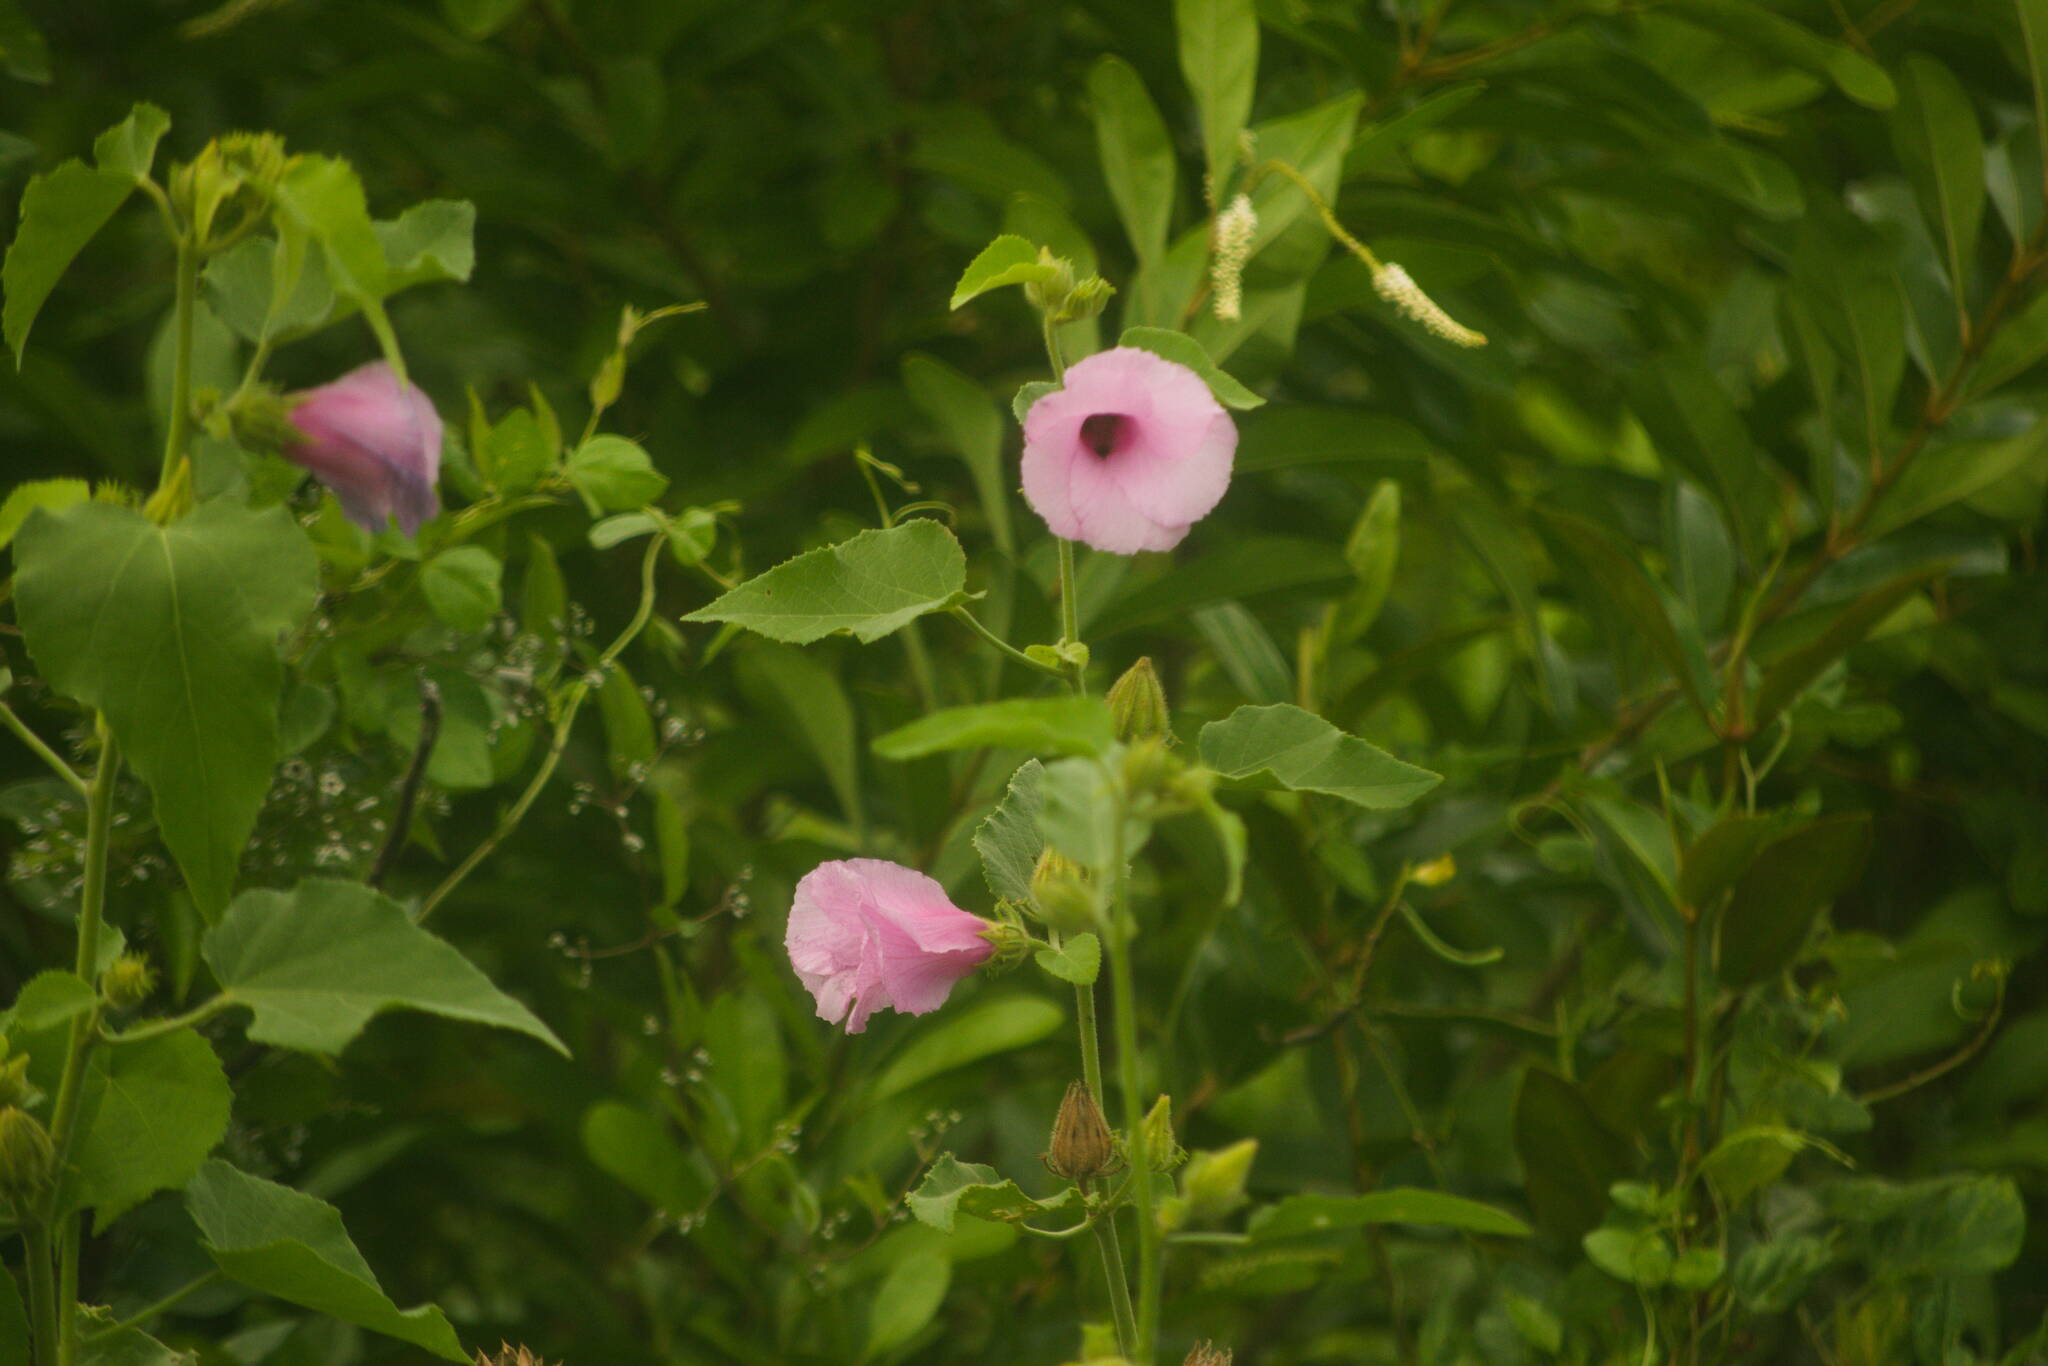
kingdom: Plantae
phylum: Tracheophyta
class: Magnoliopsida
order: Malvales
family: Malvaceae
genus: Hibiscus
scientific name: Hibiscus furcellatus
